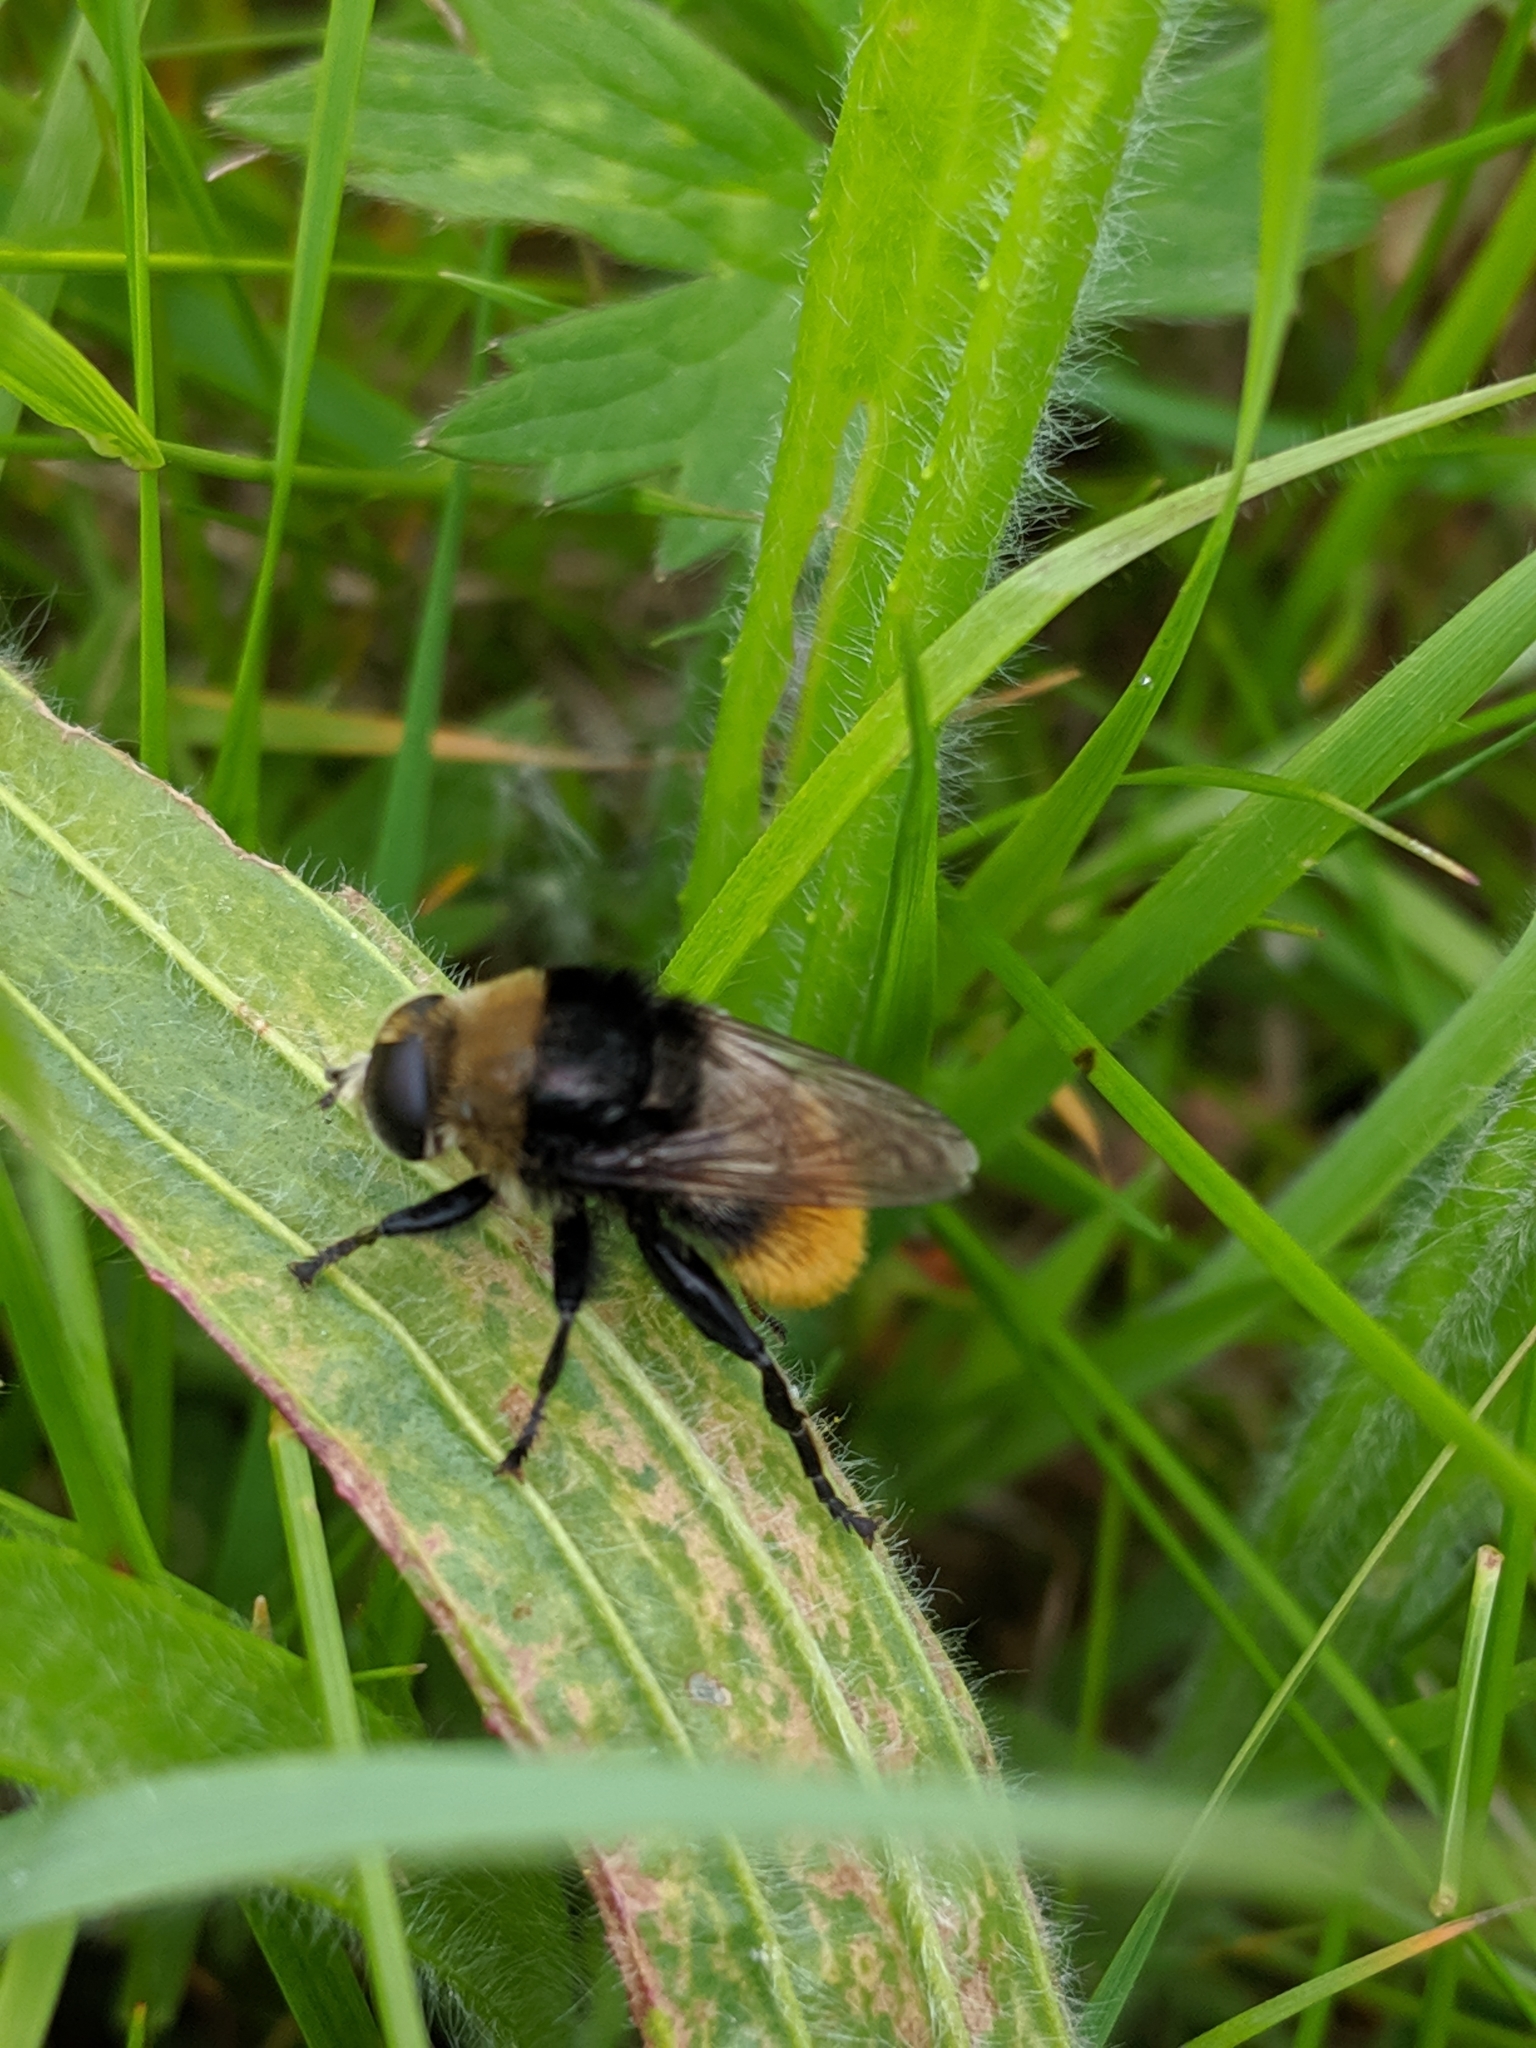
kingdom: Animalia
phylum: Arthropoda
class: Insecta
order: Diptera
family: Syrphidae
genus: Merodon
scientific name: Merodon equestris
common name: Greater bulb-fly
